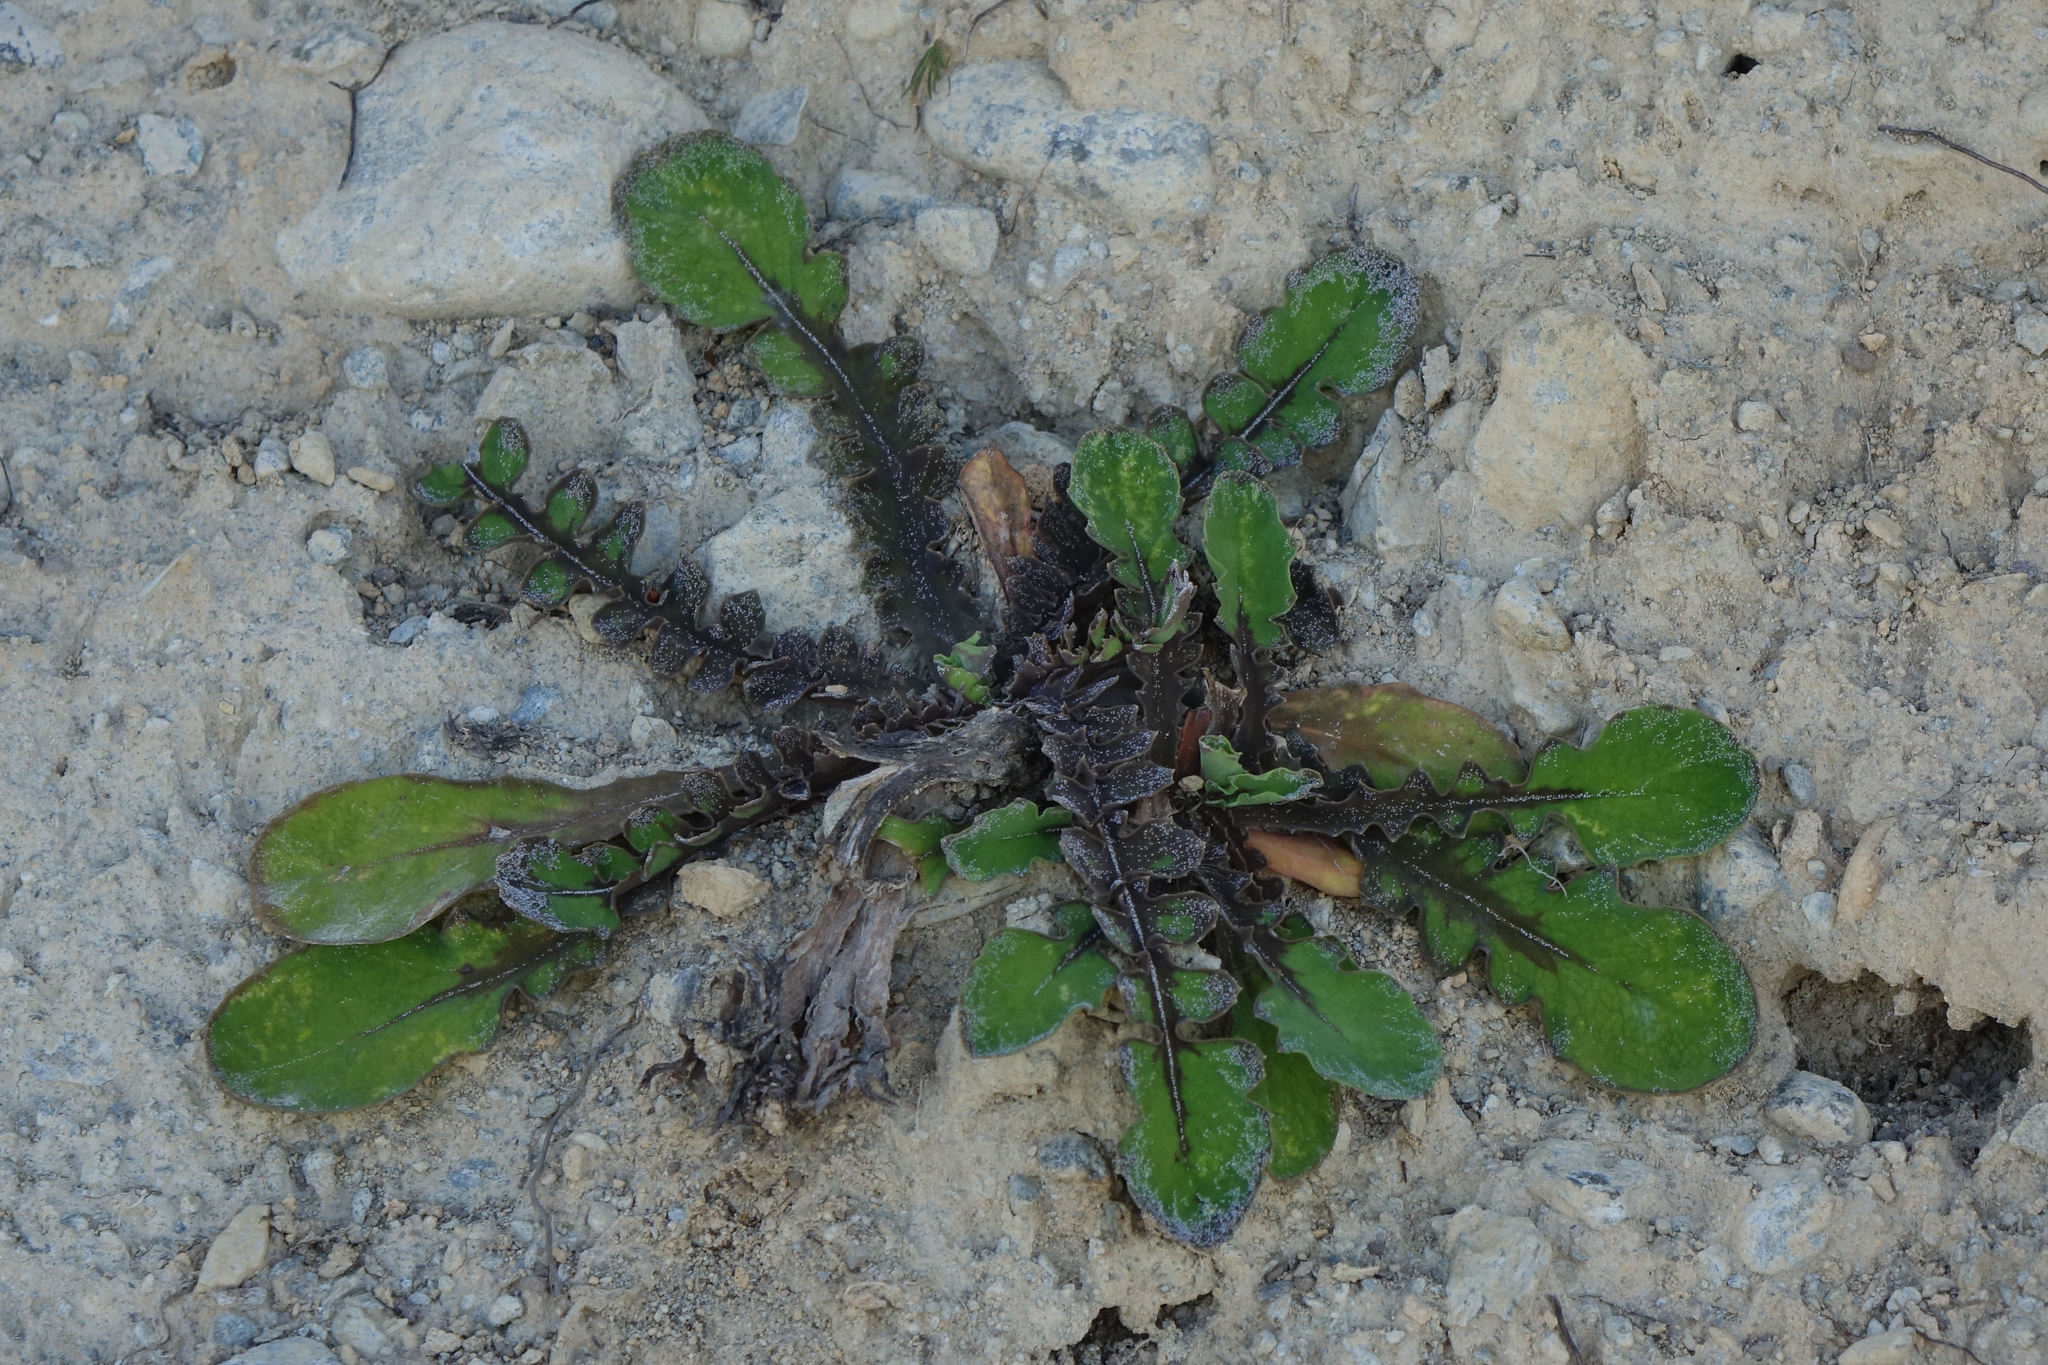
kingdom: Plantae
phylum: Tracheophyta
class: Magnoliopsida
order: Asterales
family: Asteraceae
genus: Sonchus
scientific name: Sonchus novae-zelandiae
